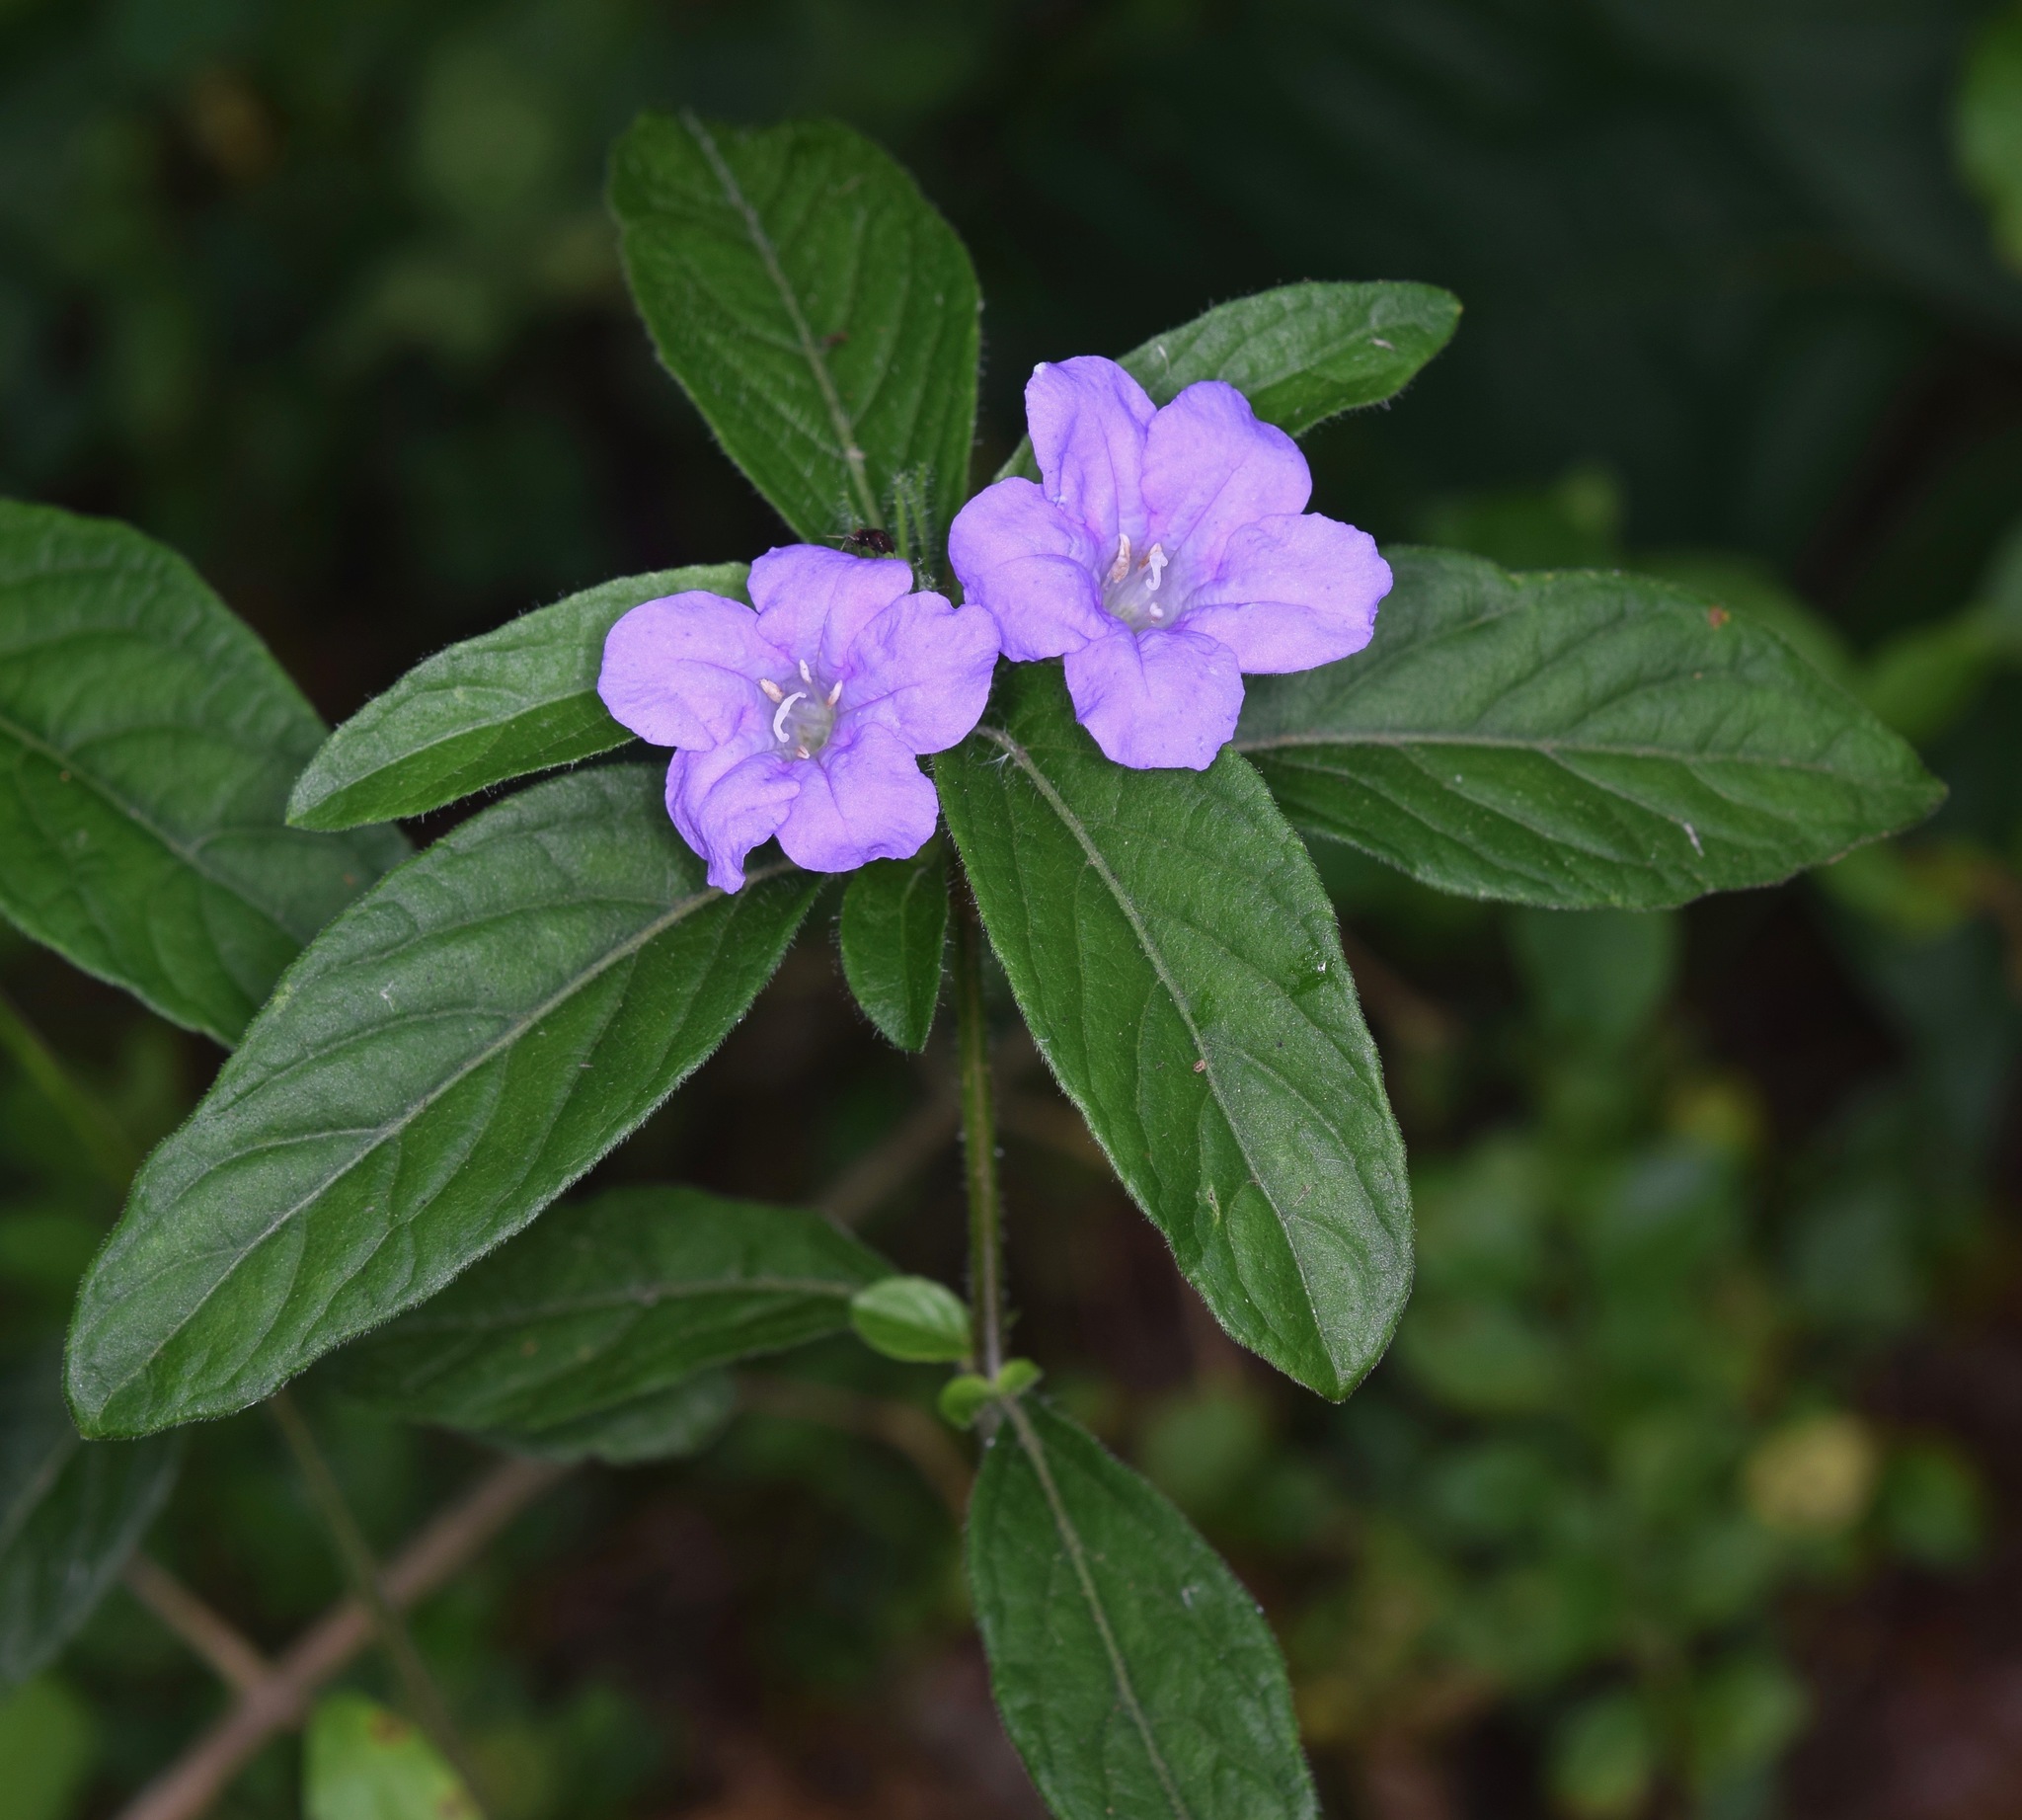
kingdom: Plantae
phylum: Tracheophyta
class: Magnoliopsida
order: Lamiales
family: Acanthaceae
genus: Ruellia
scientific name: Ruellia caroliniensis
